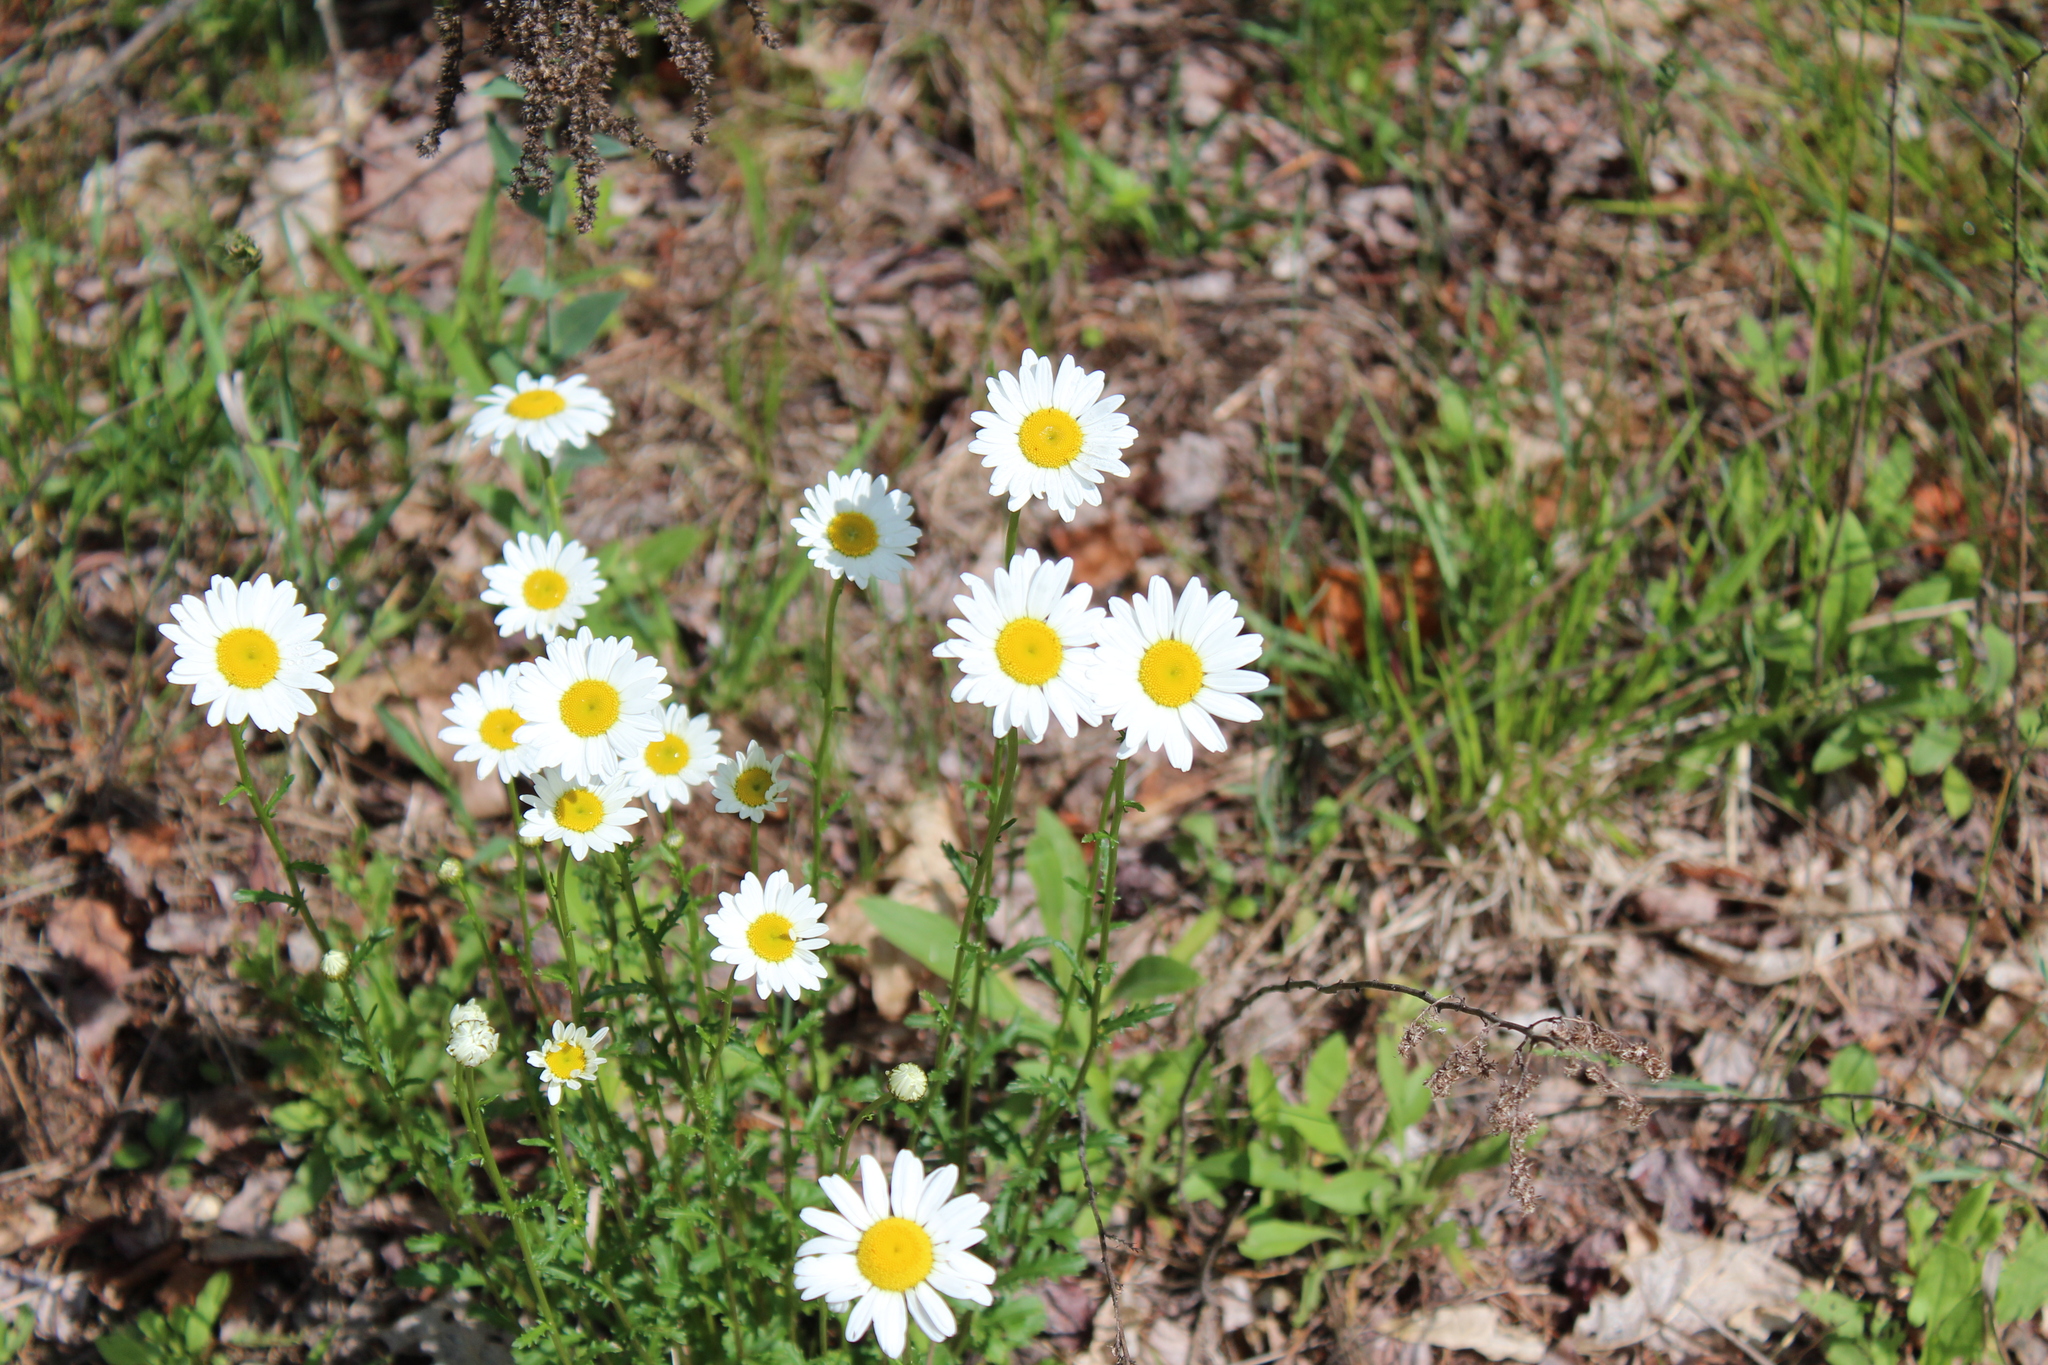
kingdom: Plantae
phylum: Tracheophyta
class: Magnoliopsida
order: Asterales
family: Asteraceae
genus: Leucanthemum
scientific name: Leucanthemum vulgare
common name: Oxeye daisy
